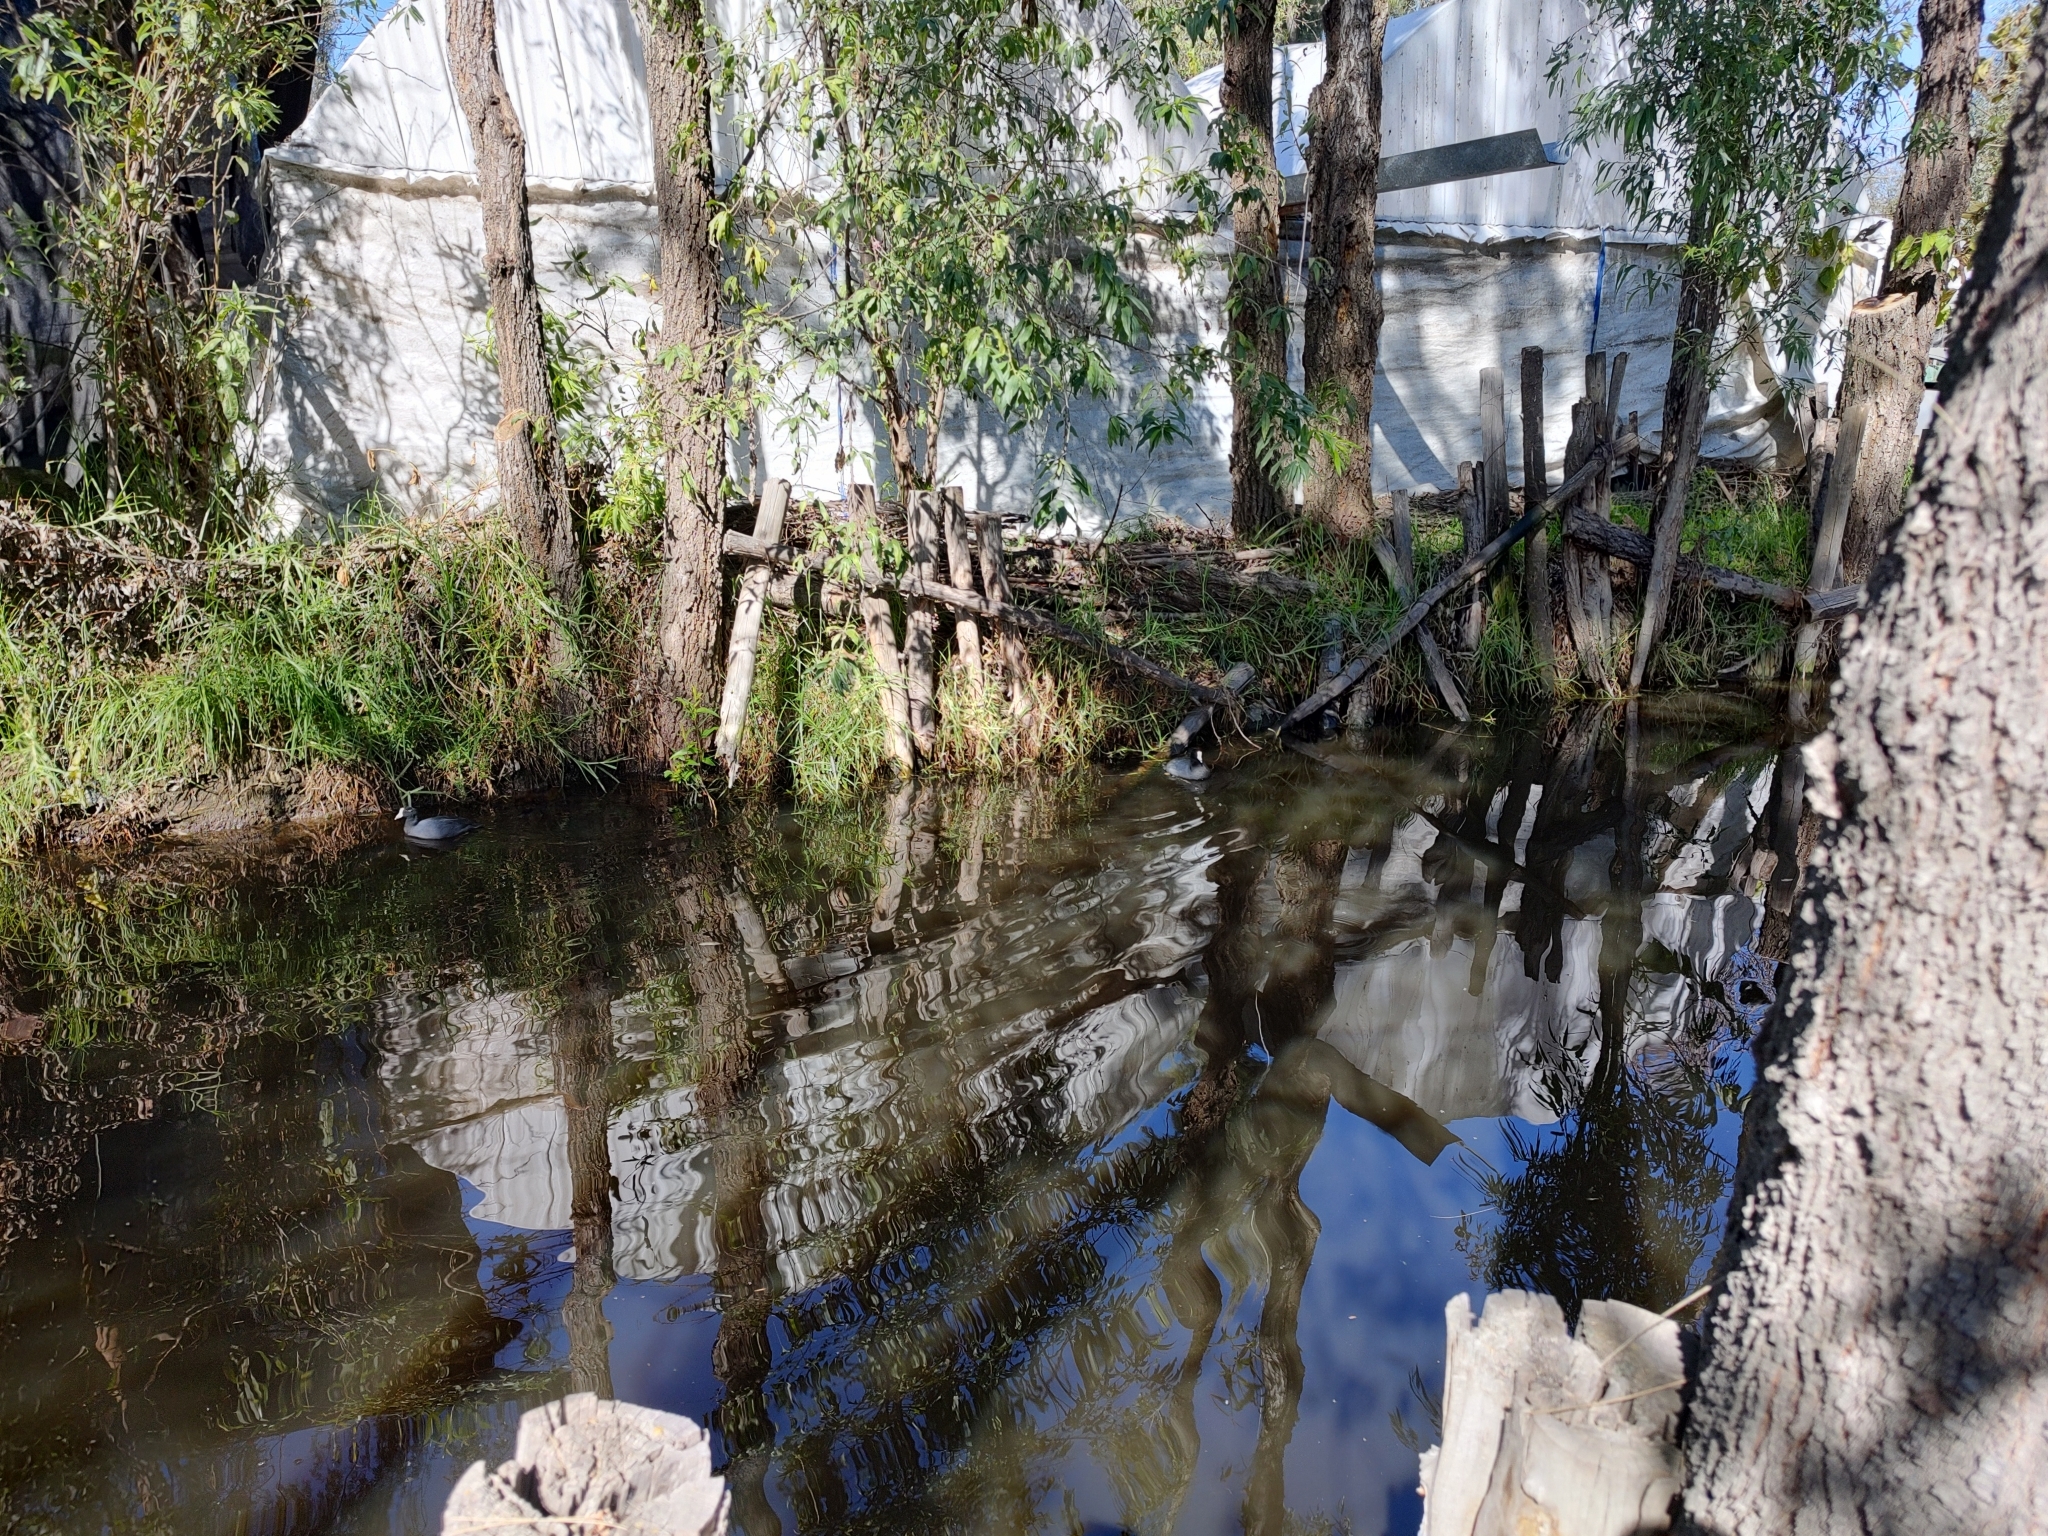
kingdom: Animalia
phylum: Chordata
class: Aves
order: Gruiformes
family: Rallidae
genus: Fulica
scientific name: Fulica americana
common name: American coot
